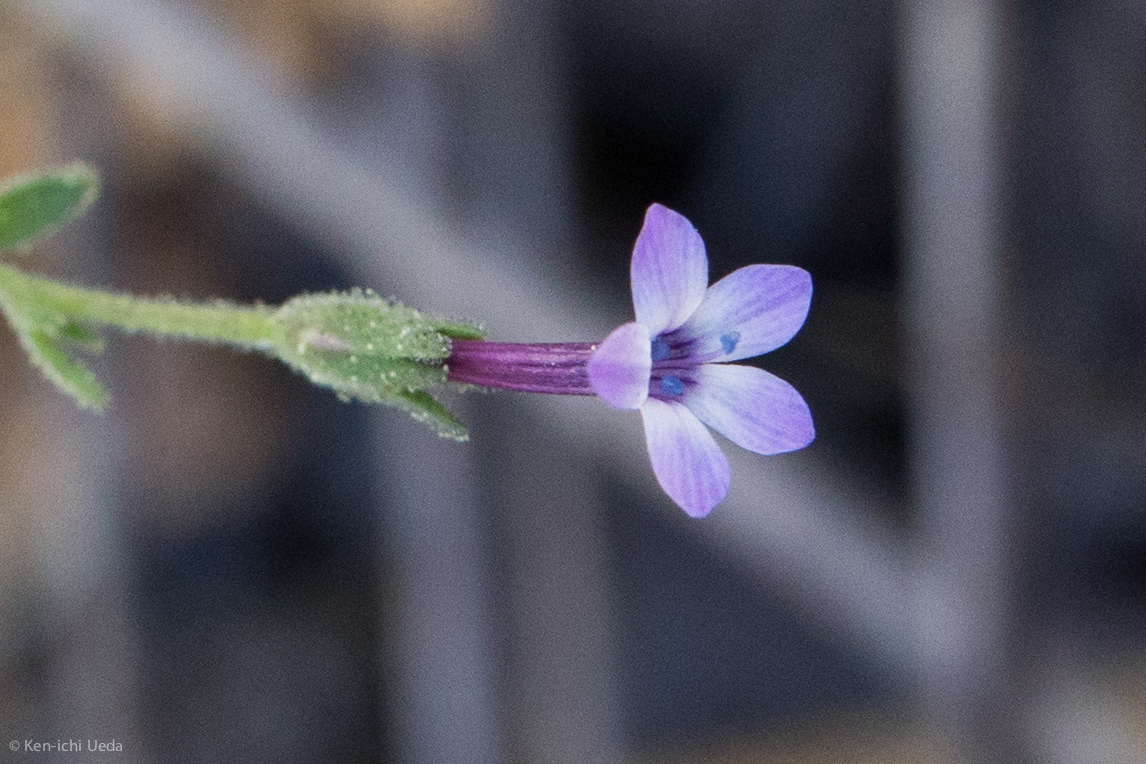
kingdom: Plantae
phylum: Tracheophyta
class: Magnoliopsida
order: Ericales
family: Polemoniaceae
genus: Allophyllum
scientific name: Allophyllum gilioides
